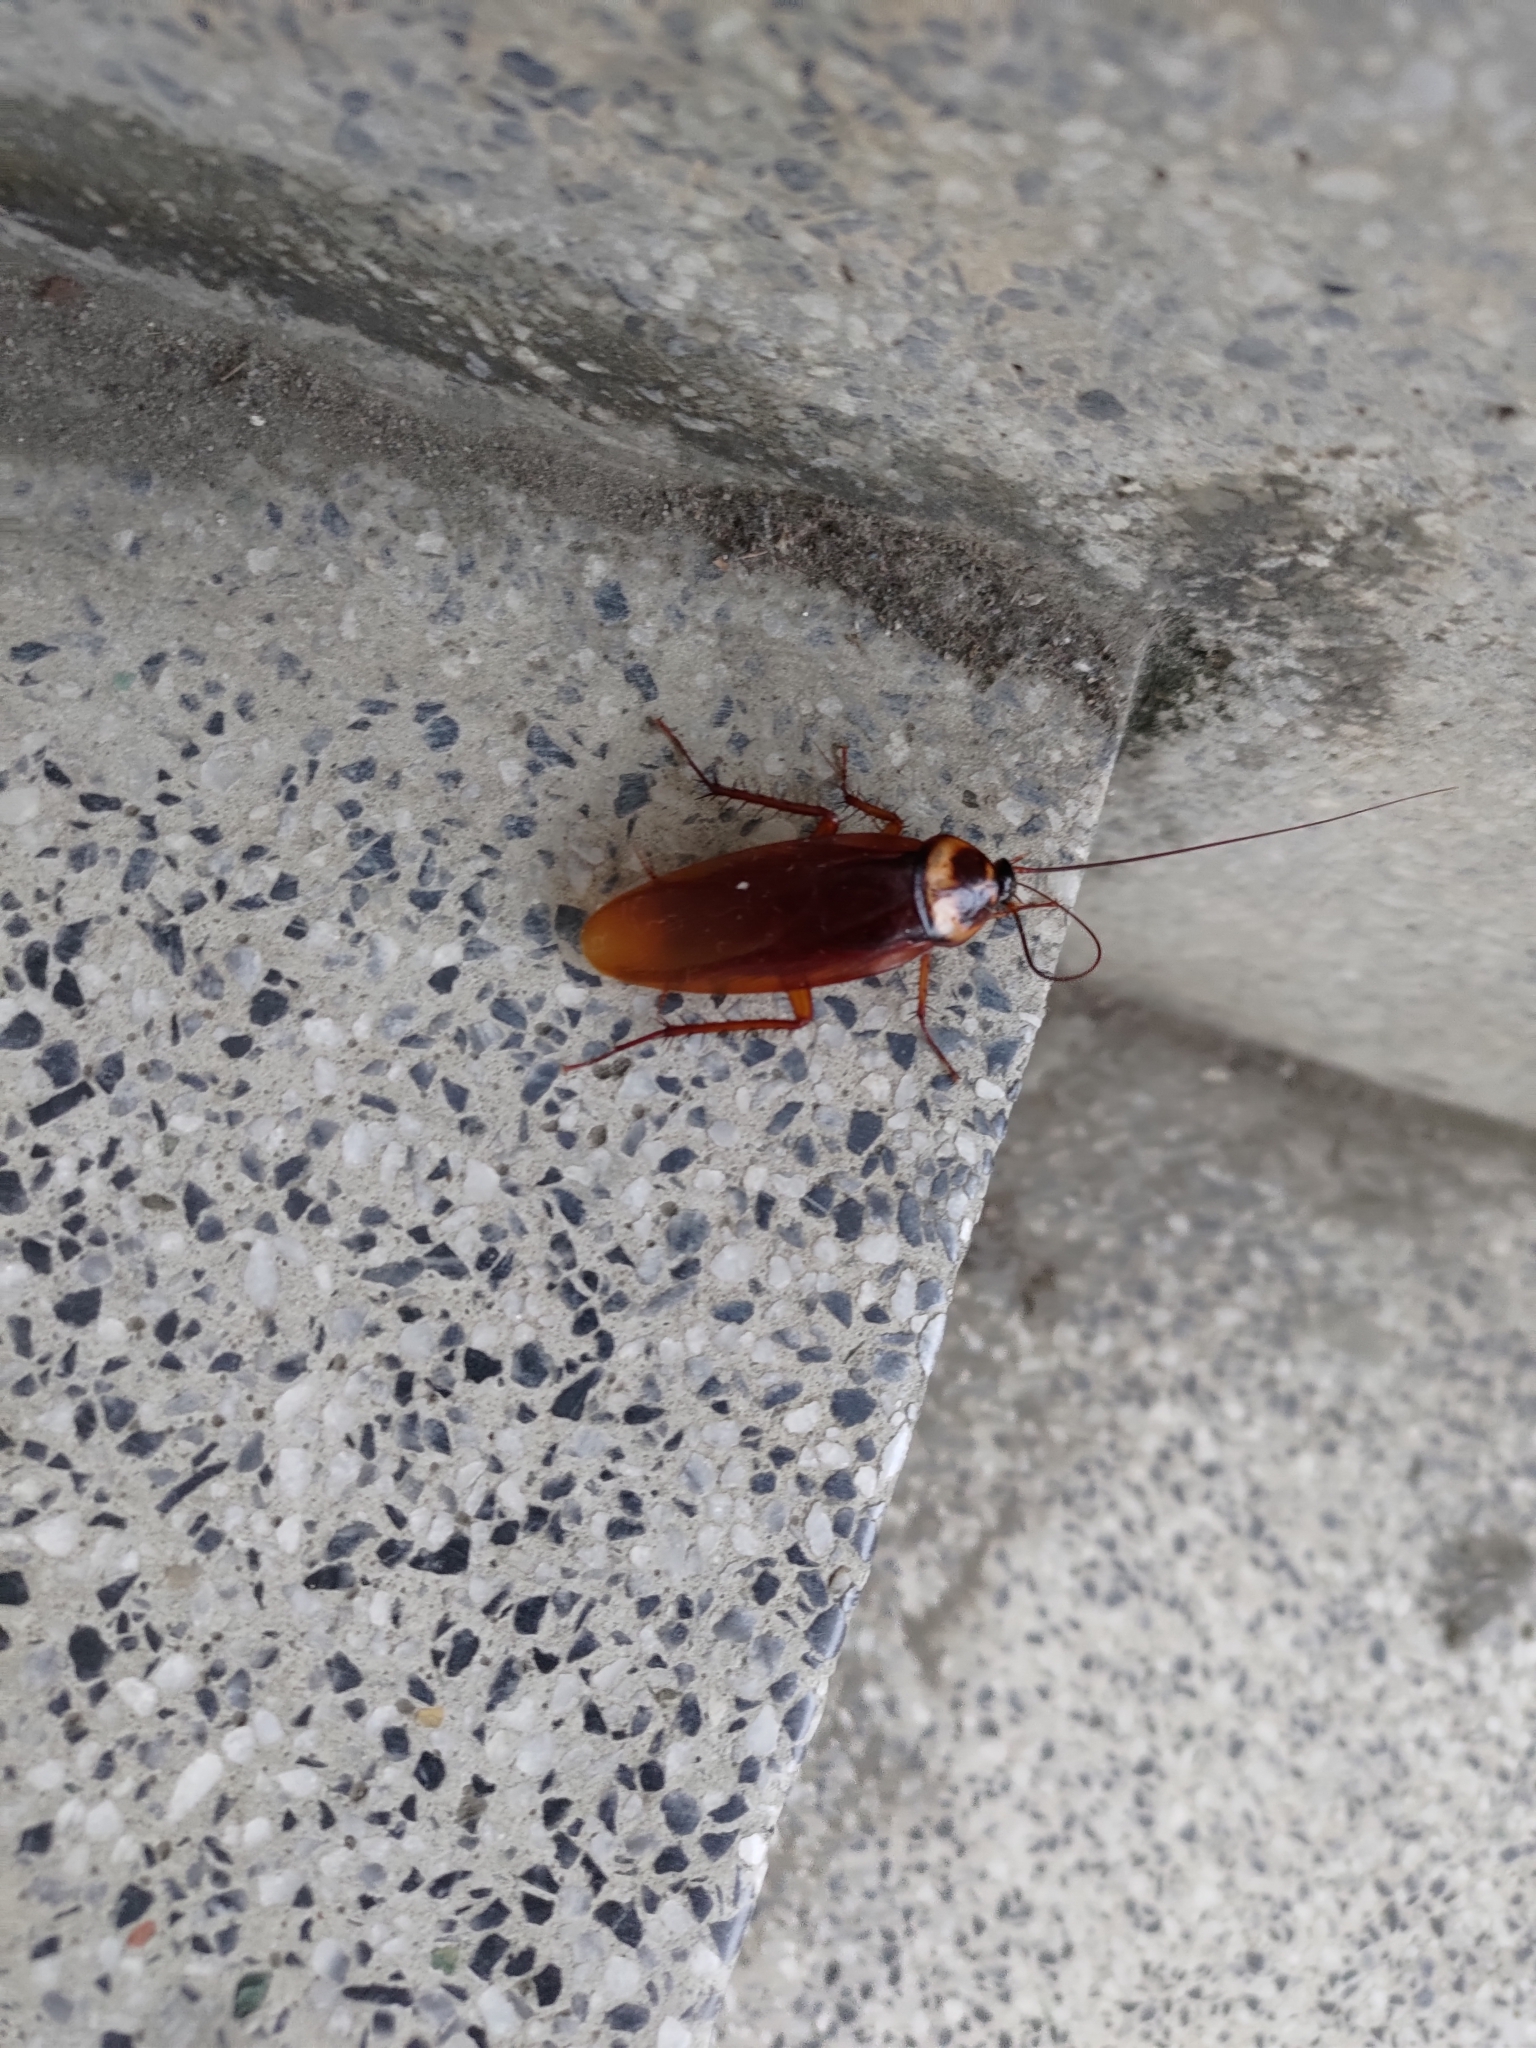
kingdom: Animalia
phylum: Arthropoda
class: Insecta
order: Blattodea
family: Blattidae
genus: Periplaneta
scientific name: Periplaneta americana
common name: American cockroach
